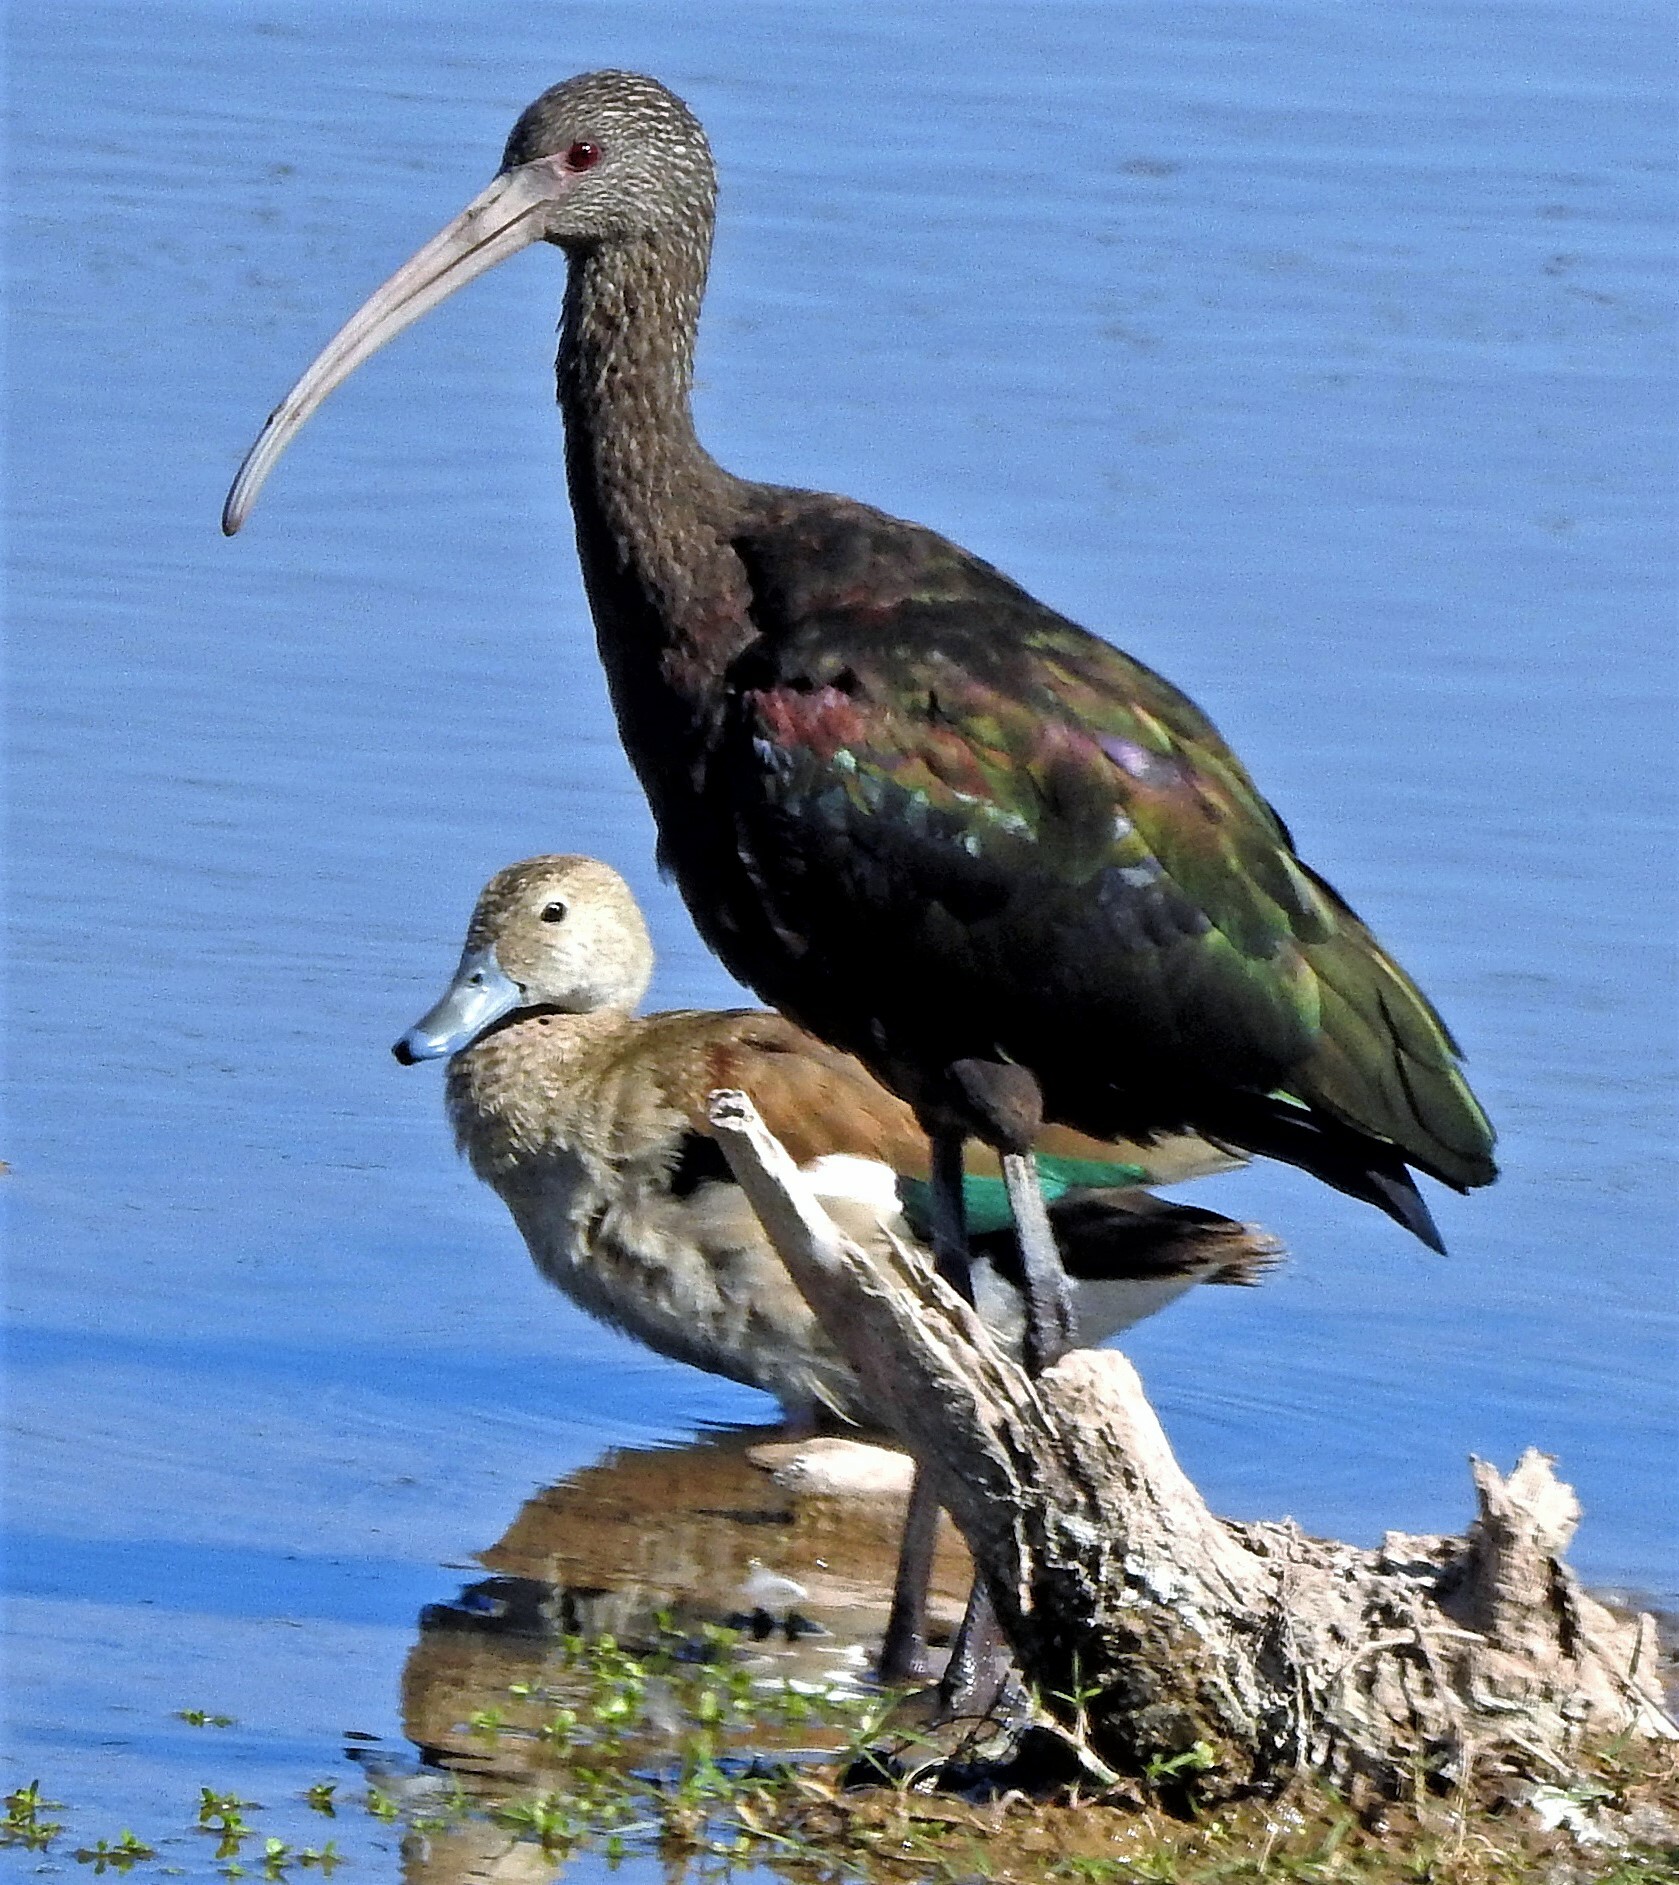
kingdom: Animalia
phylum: Chordata
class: Aves
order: Pelecaniformes
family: Threskiornithidae
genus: Plegadis
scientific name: Plegadis chihi
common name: White-faced ibis
